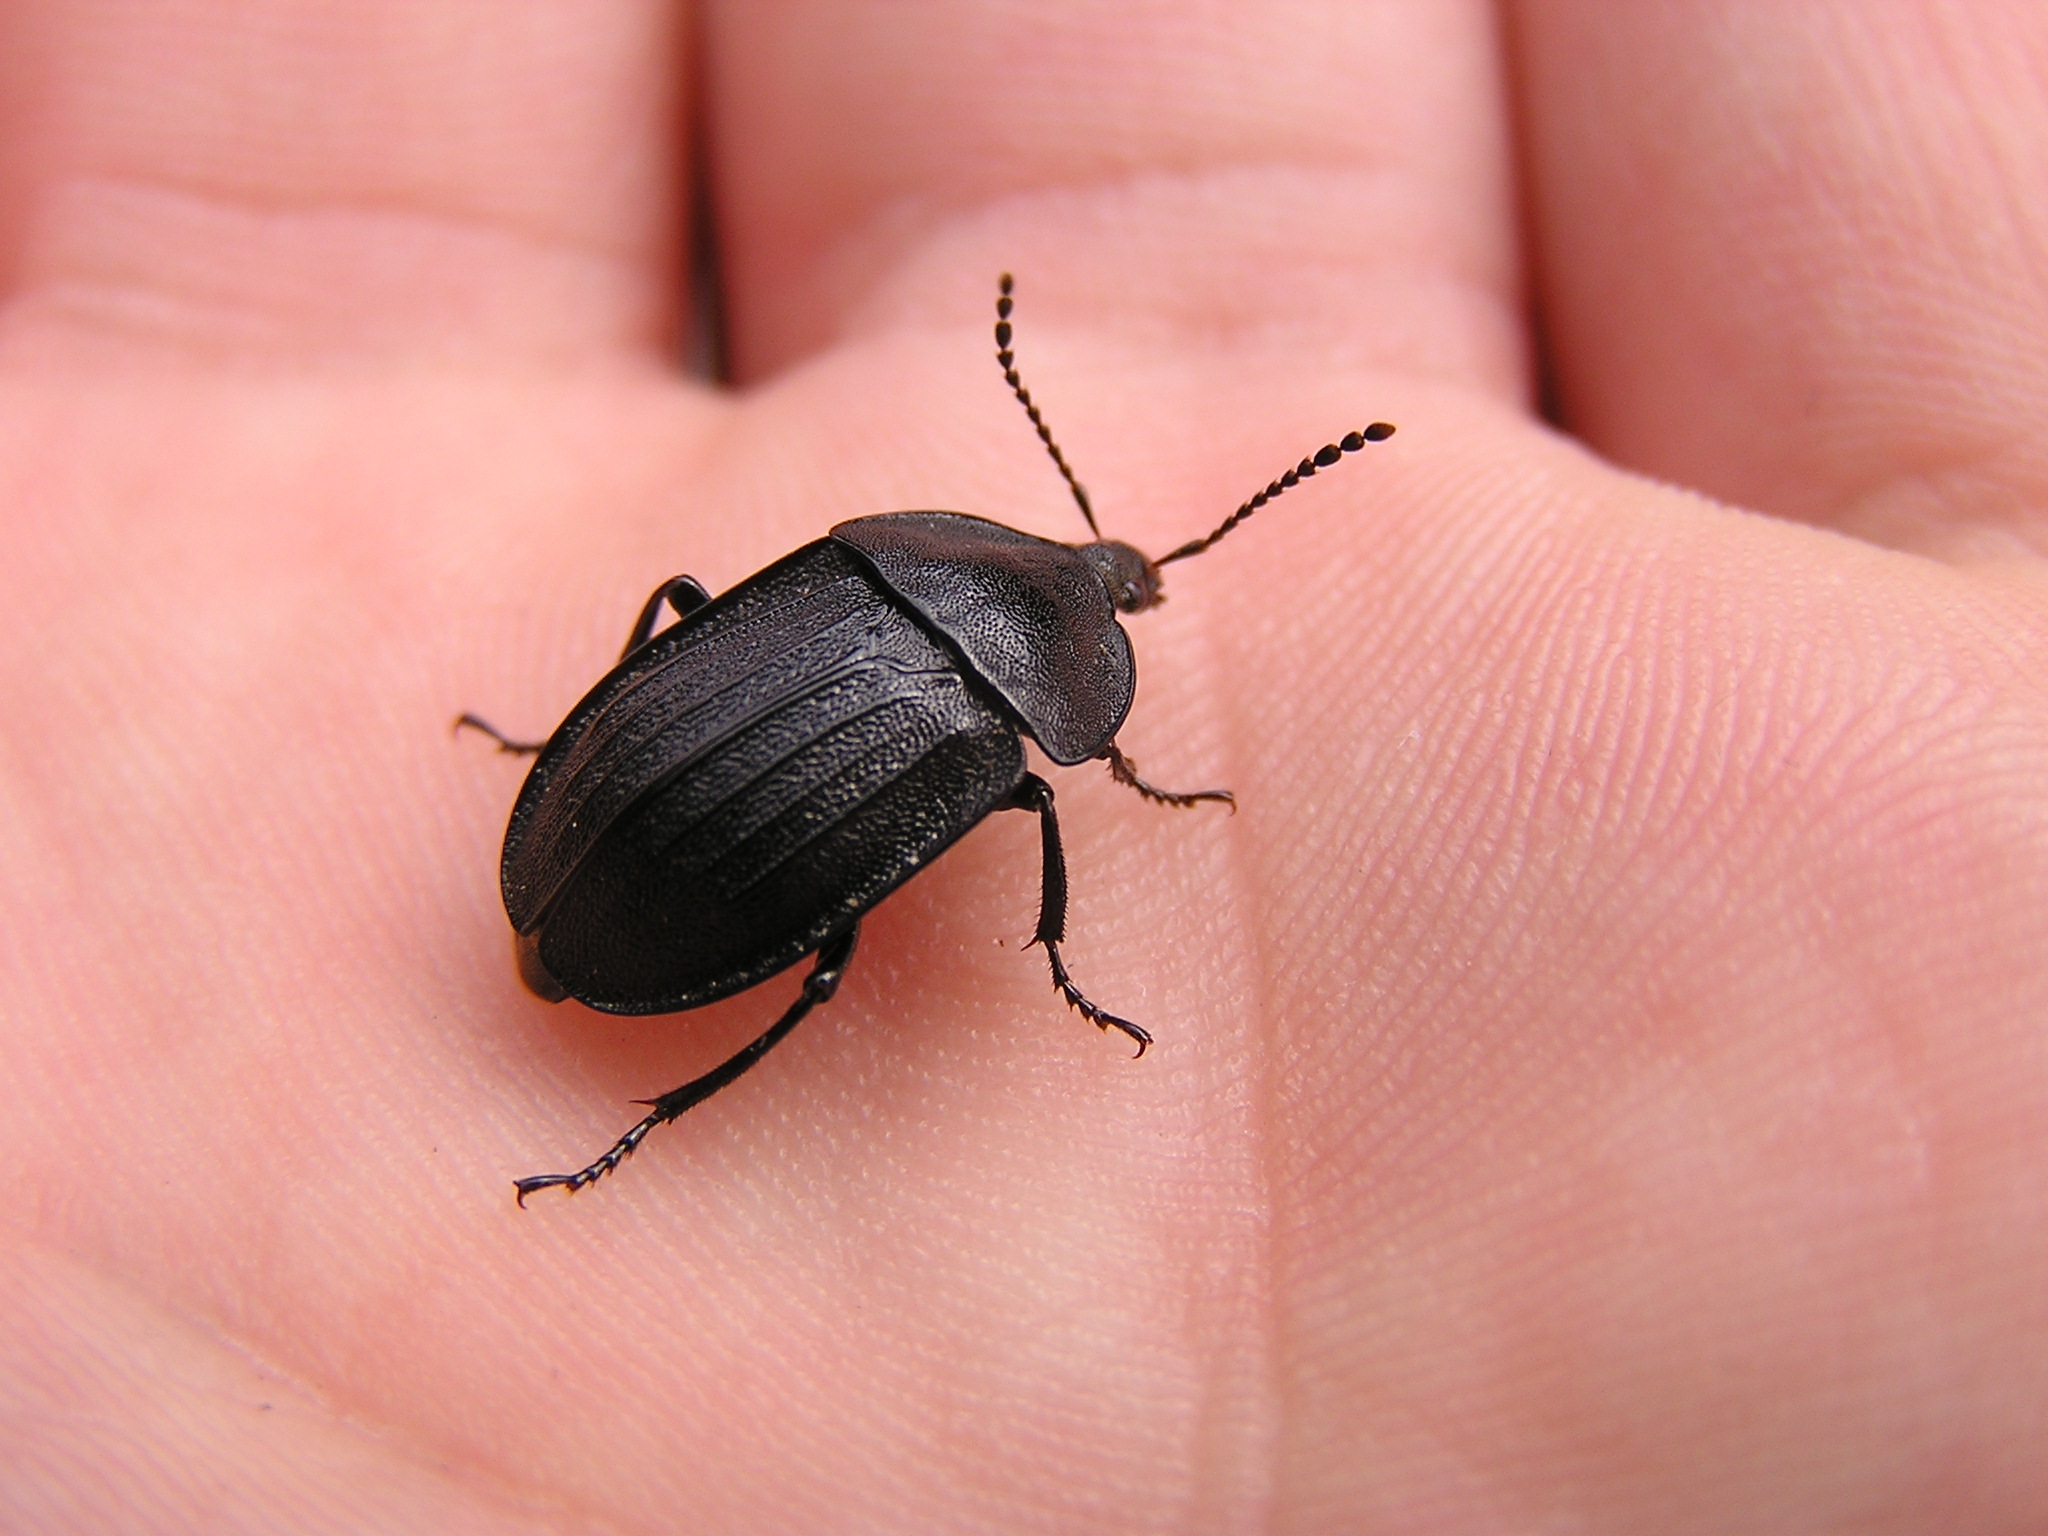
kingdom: Animalia
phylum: Arthropoda
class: Insecta
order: Coleoptera
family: Staphylinidae
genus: Silpha
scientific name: Silpha atrata
